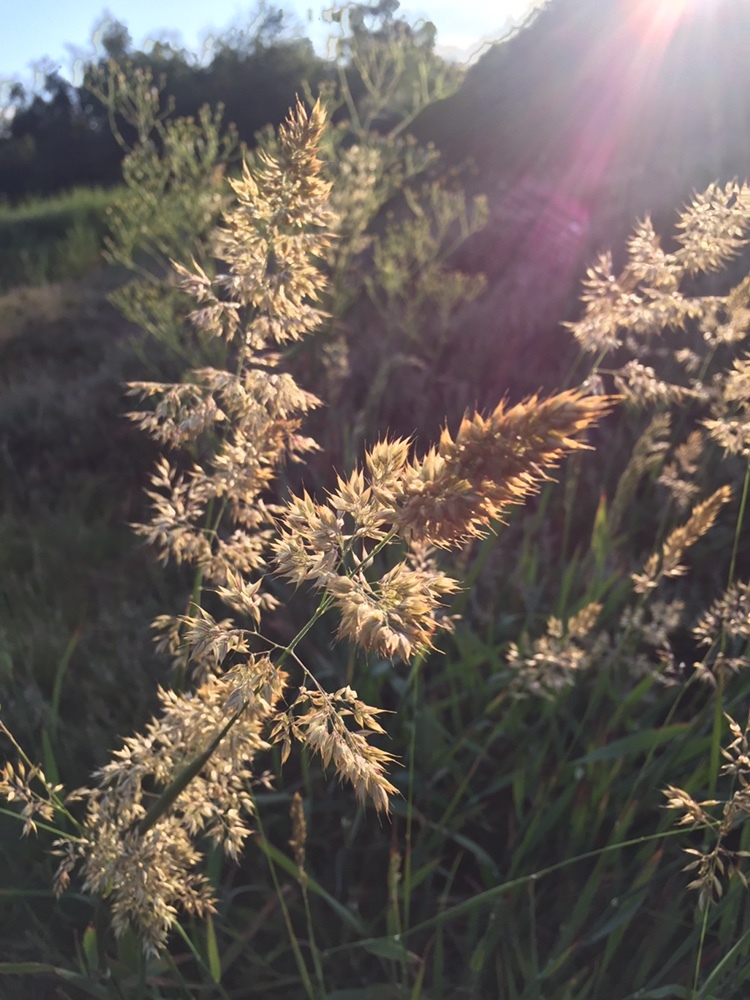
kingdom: Plantae
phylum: Tracheophyta
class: Liliopsida
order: Poales
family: Poaceae
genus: Holcus
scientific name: Holcus lanatus
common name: Yorkshire-fog
